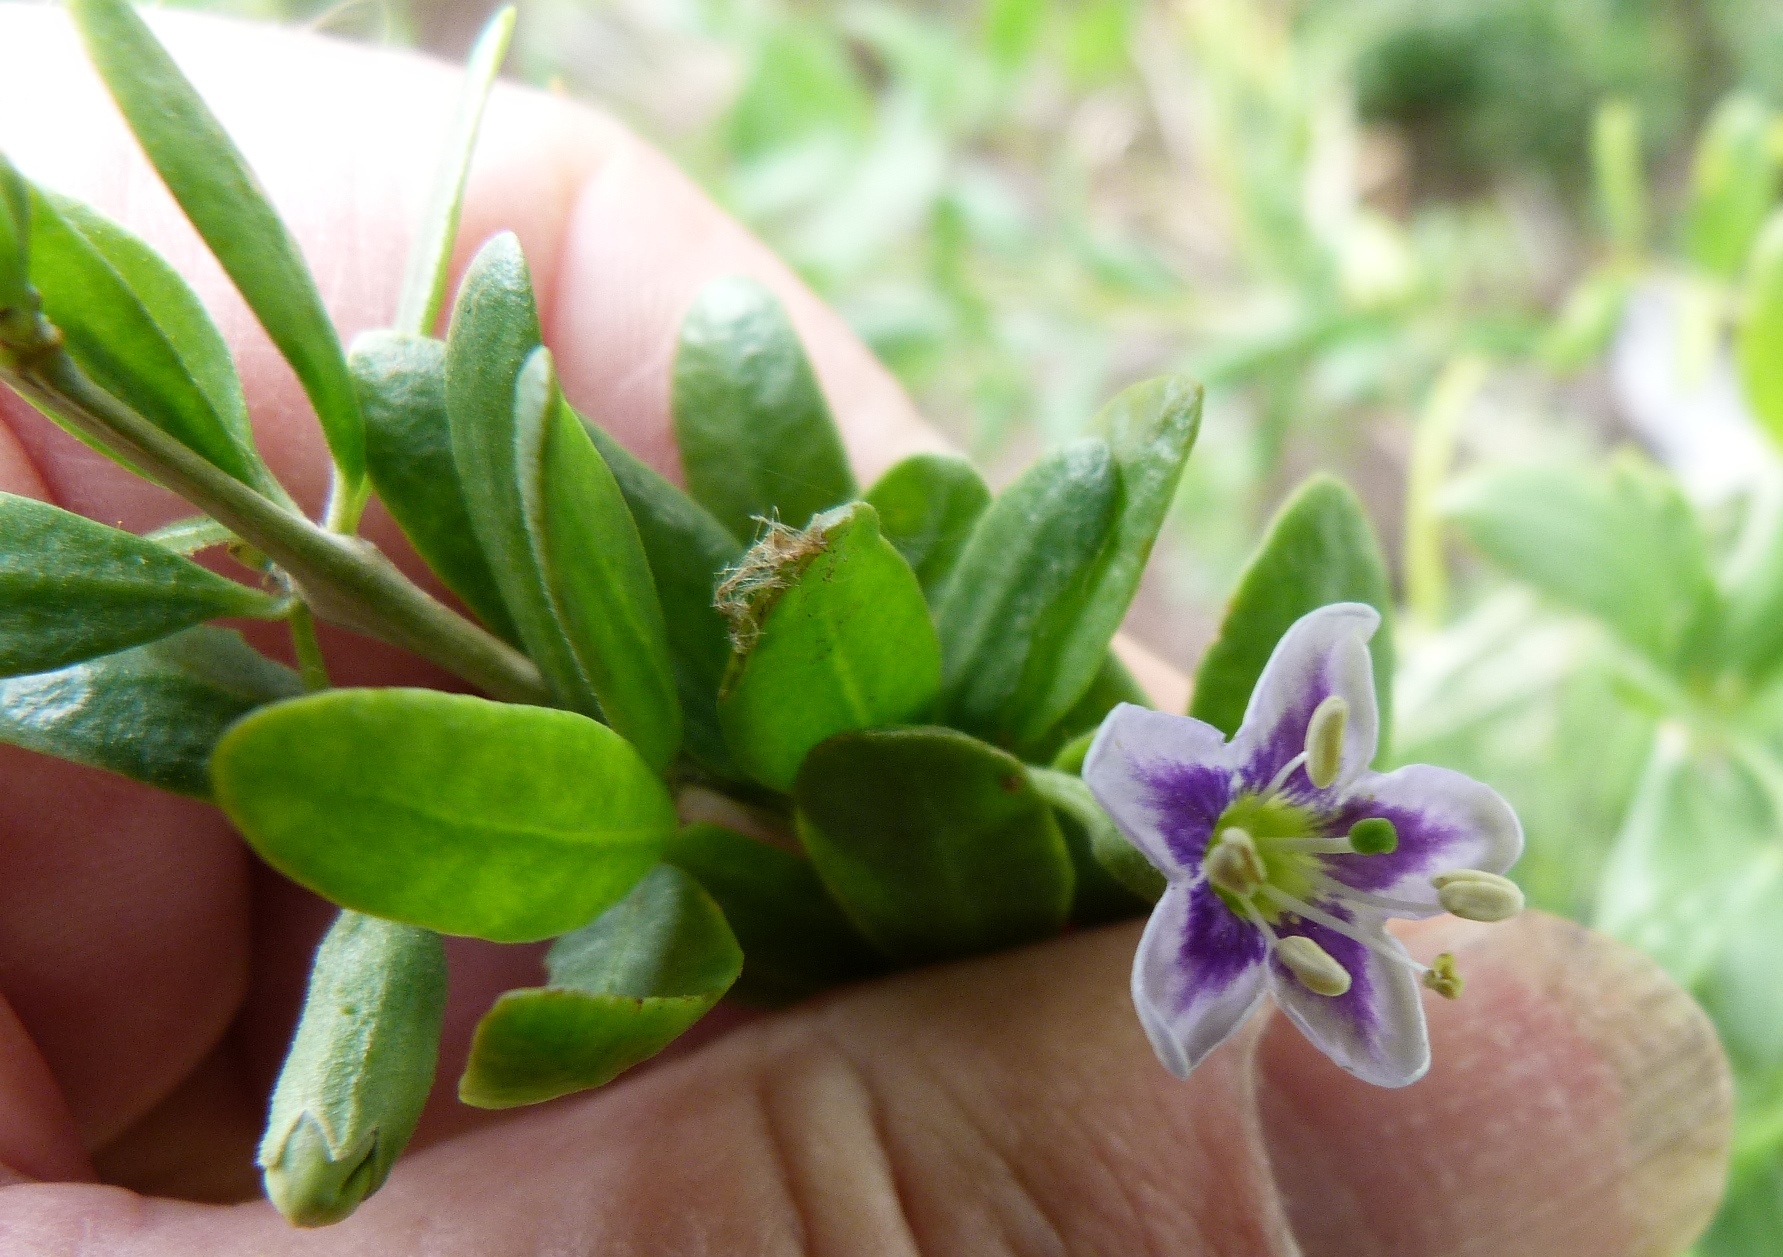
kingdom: Plantae
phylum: Tracheophyta
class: Magnoliopsida
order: Solanales
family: Solanaceae
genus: Lycium
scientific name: Lycium ferocissimum
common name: African boxthorn
